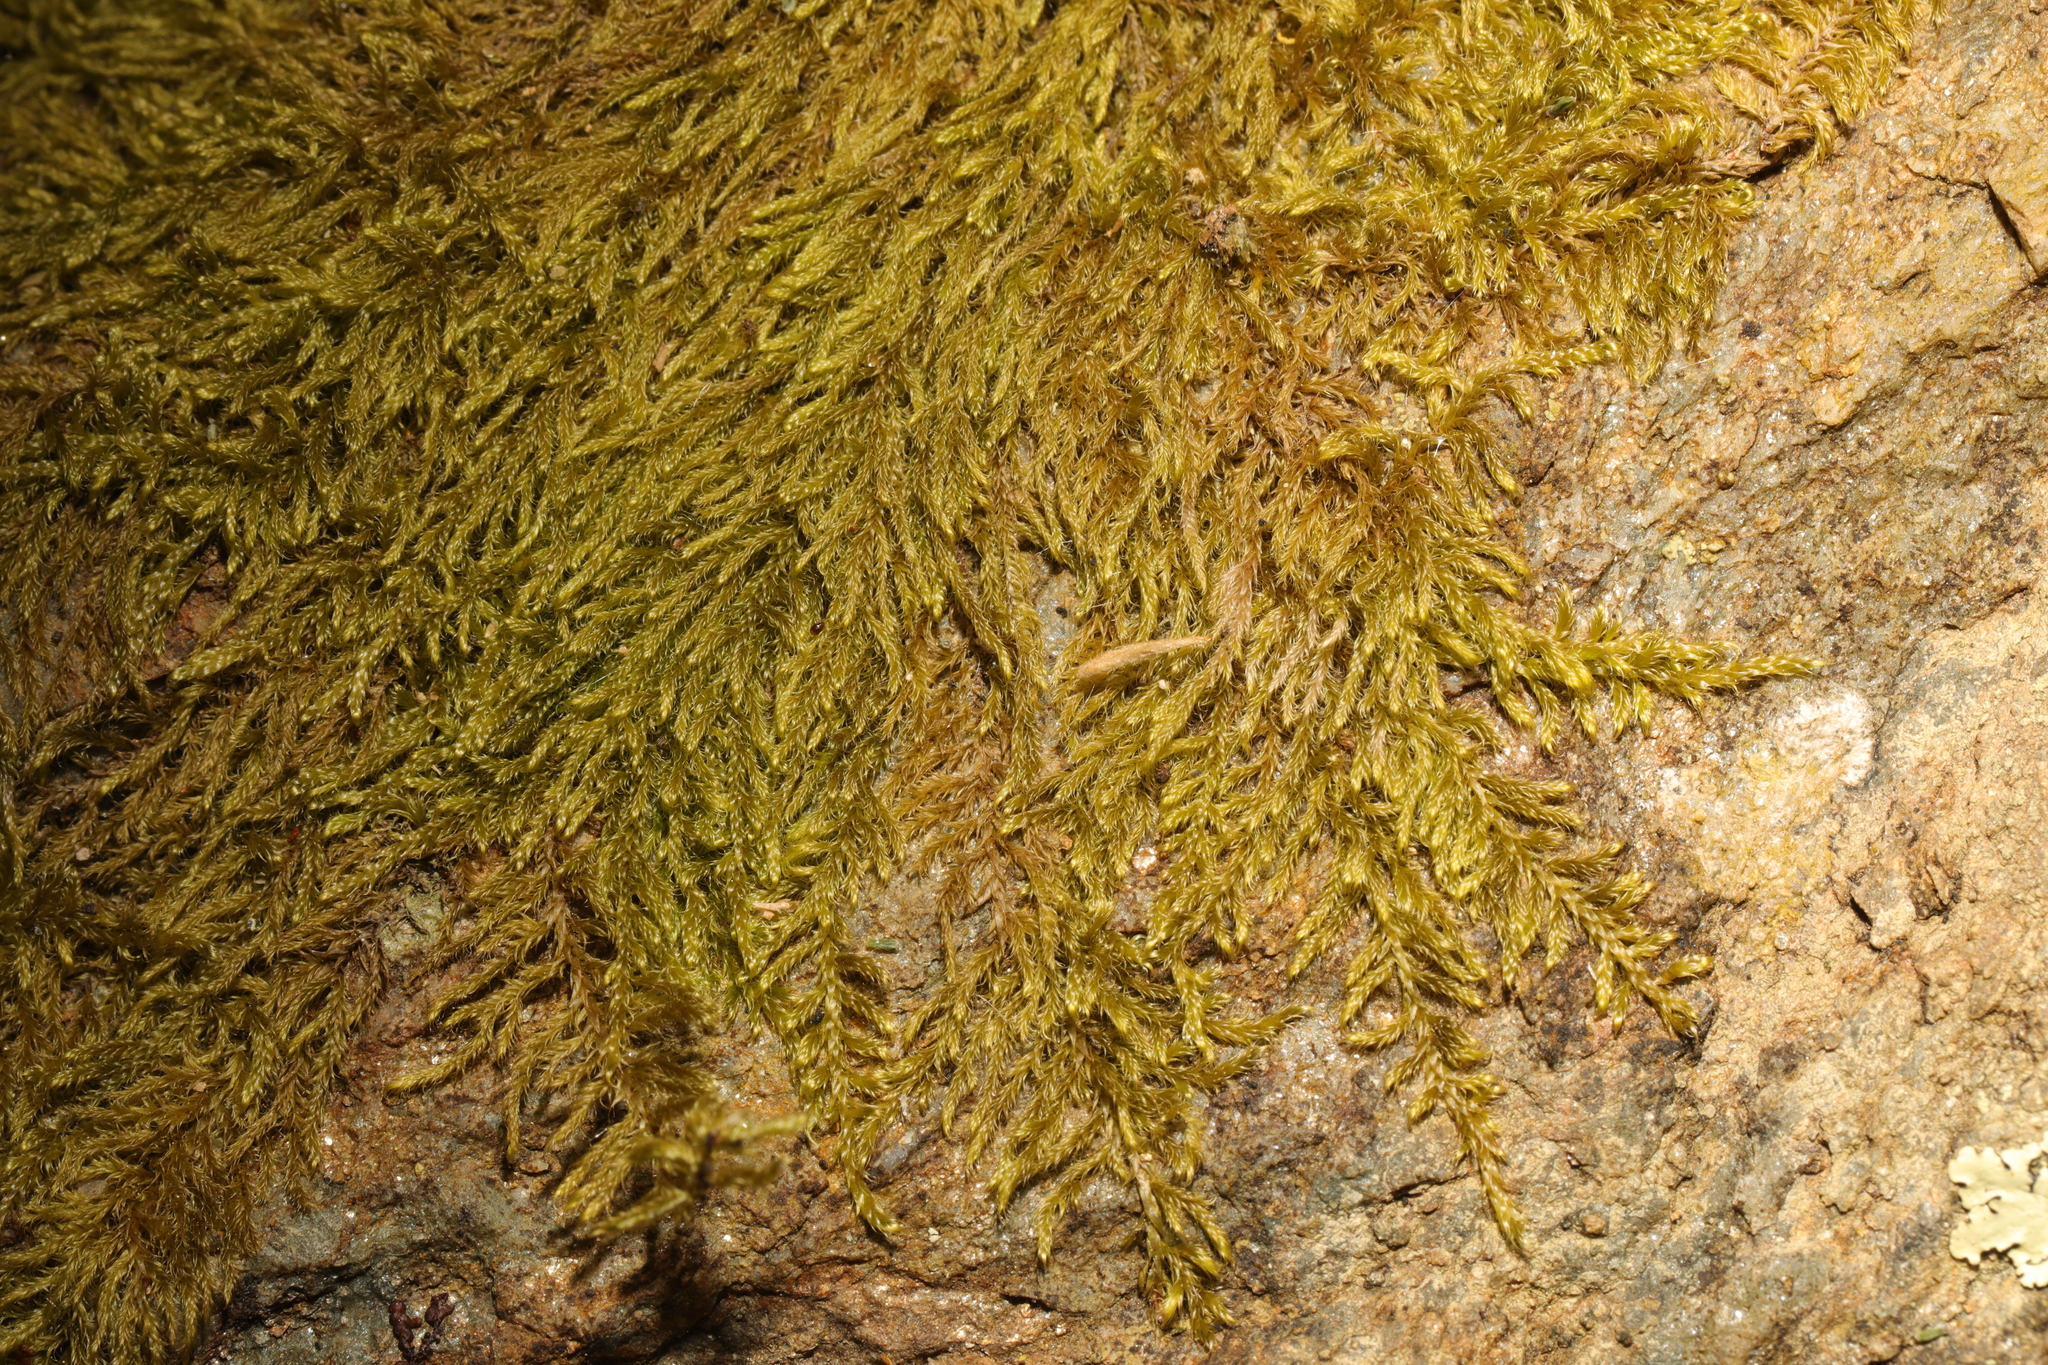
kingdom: Plantae
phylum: Bryophyta
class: Bryopsida
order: Hypnales
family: Hypnaceae
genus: Hypnum
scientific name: Hypnum cupressiforme
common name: Cypress-leaved plait-moss
